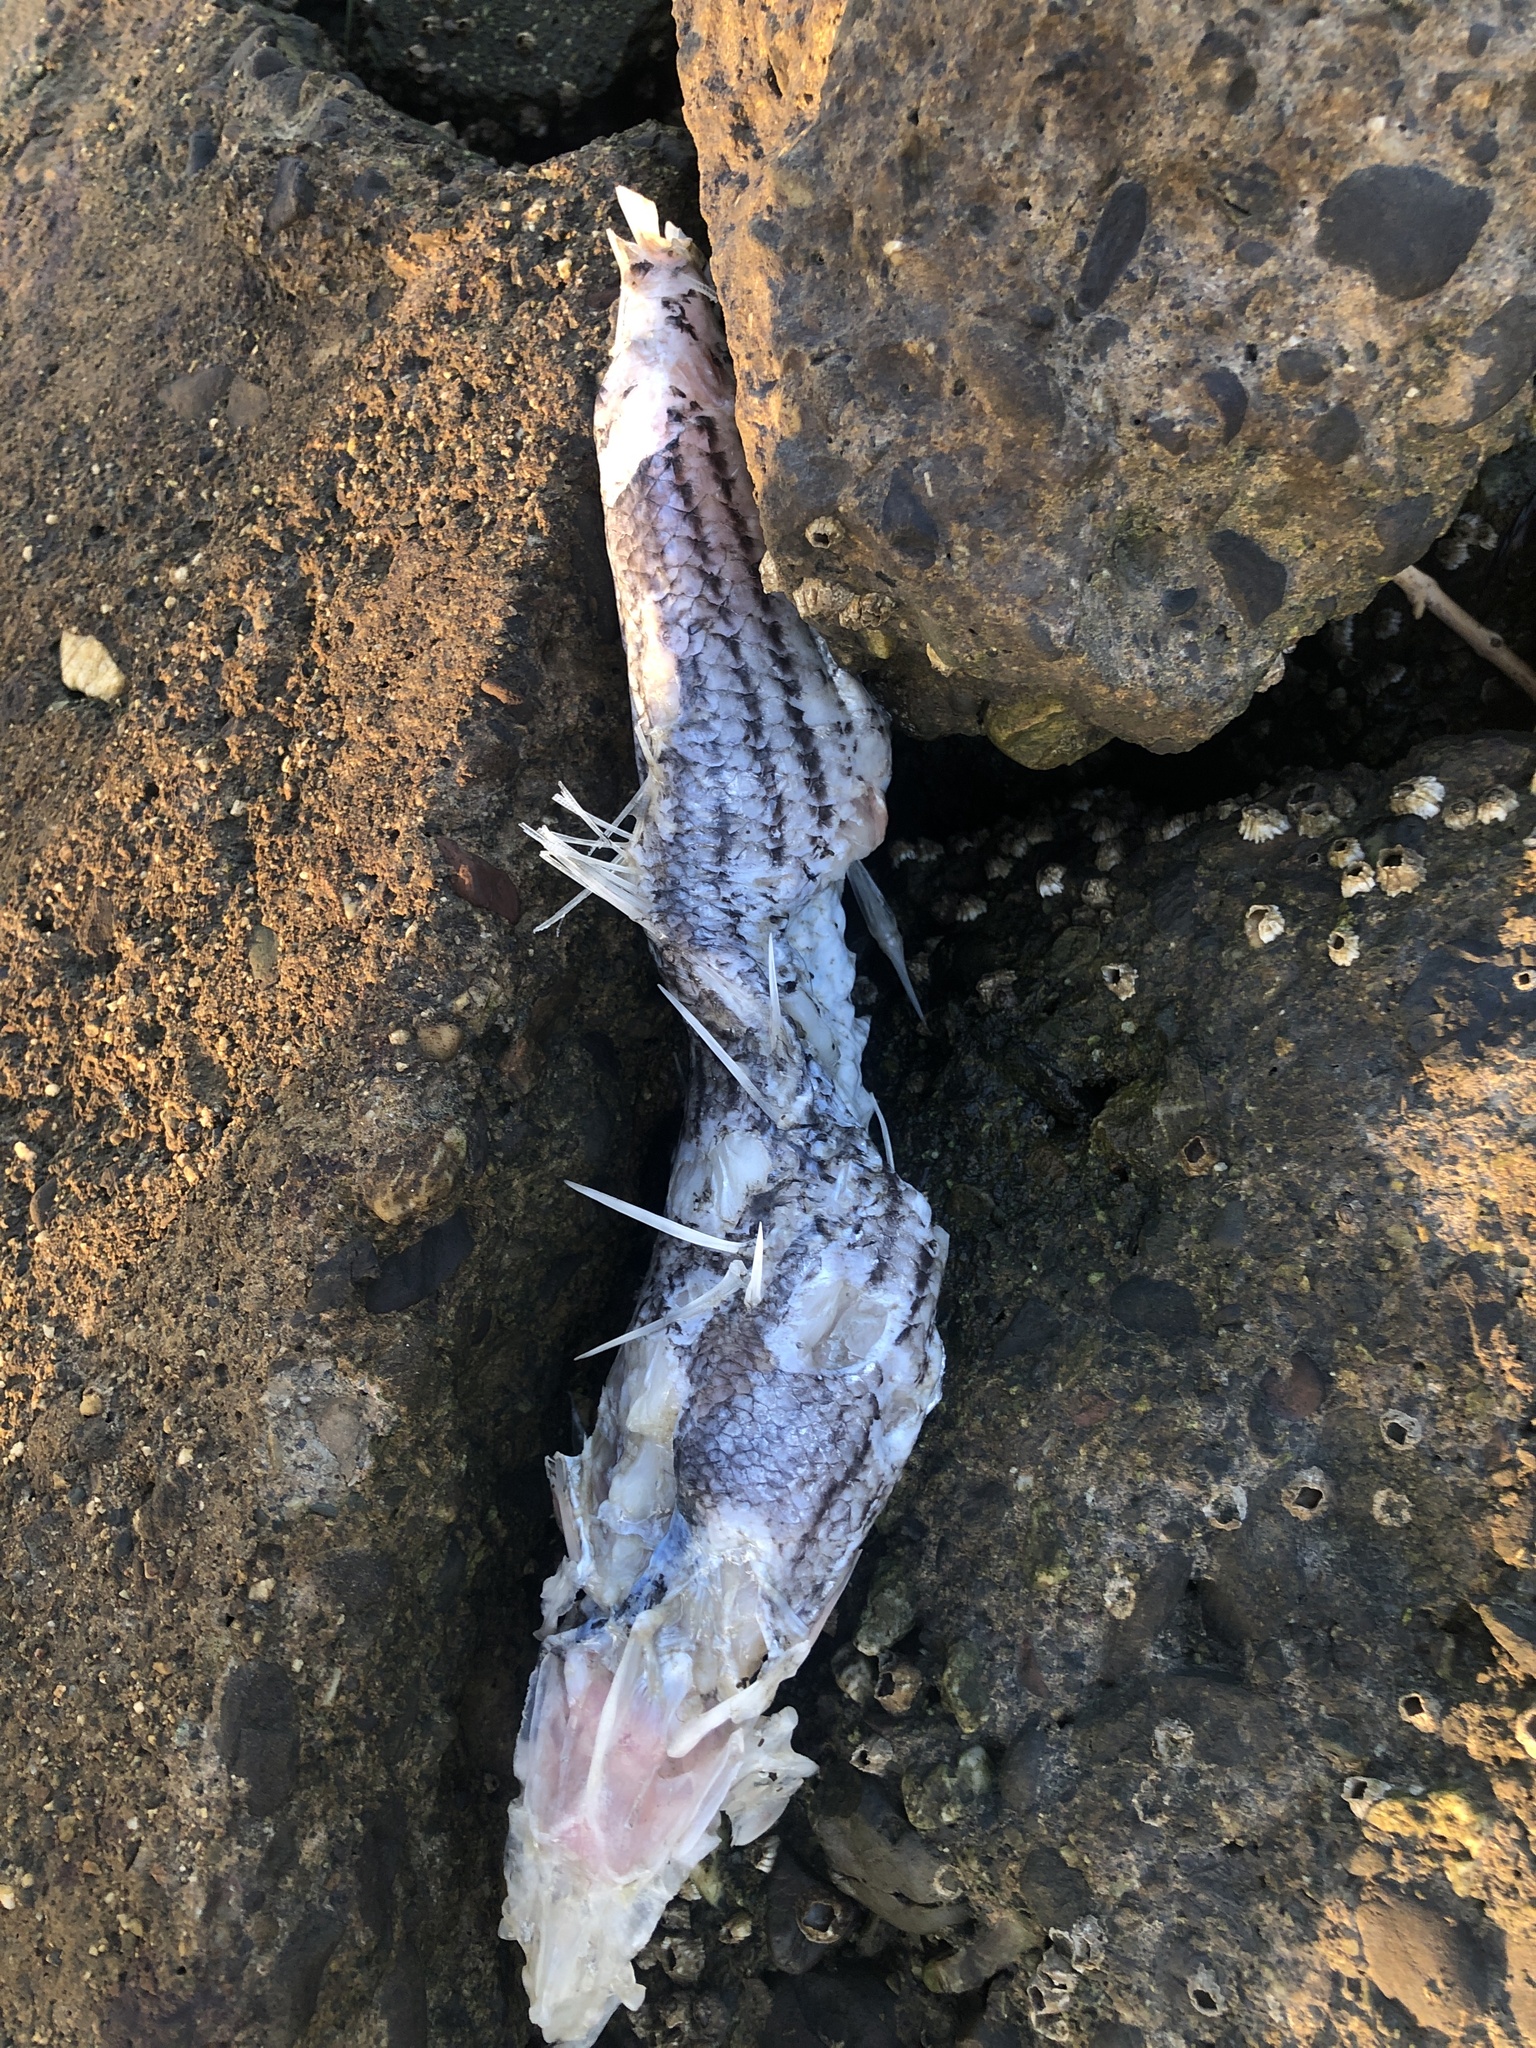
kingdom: Animalia
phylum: Chordata
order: Perciformes
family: Moronidae
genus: Morone
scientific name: Morone saxatilis
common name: Striped bass
